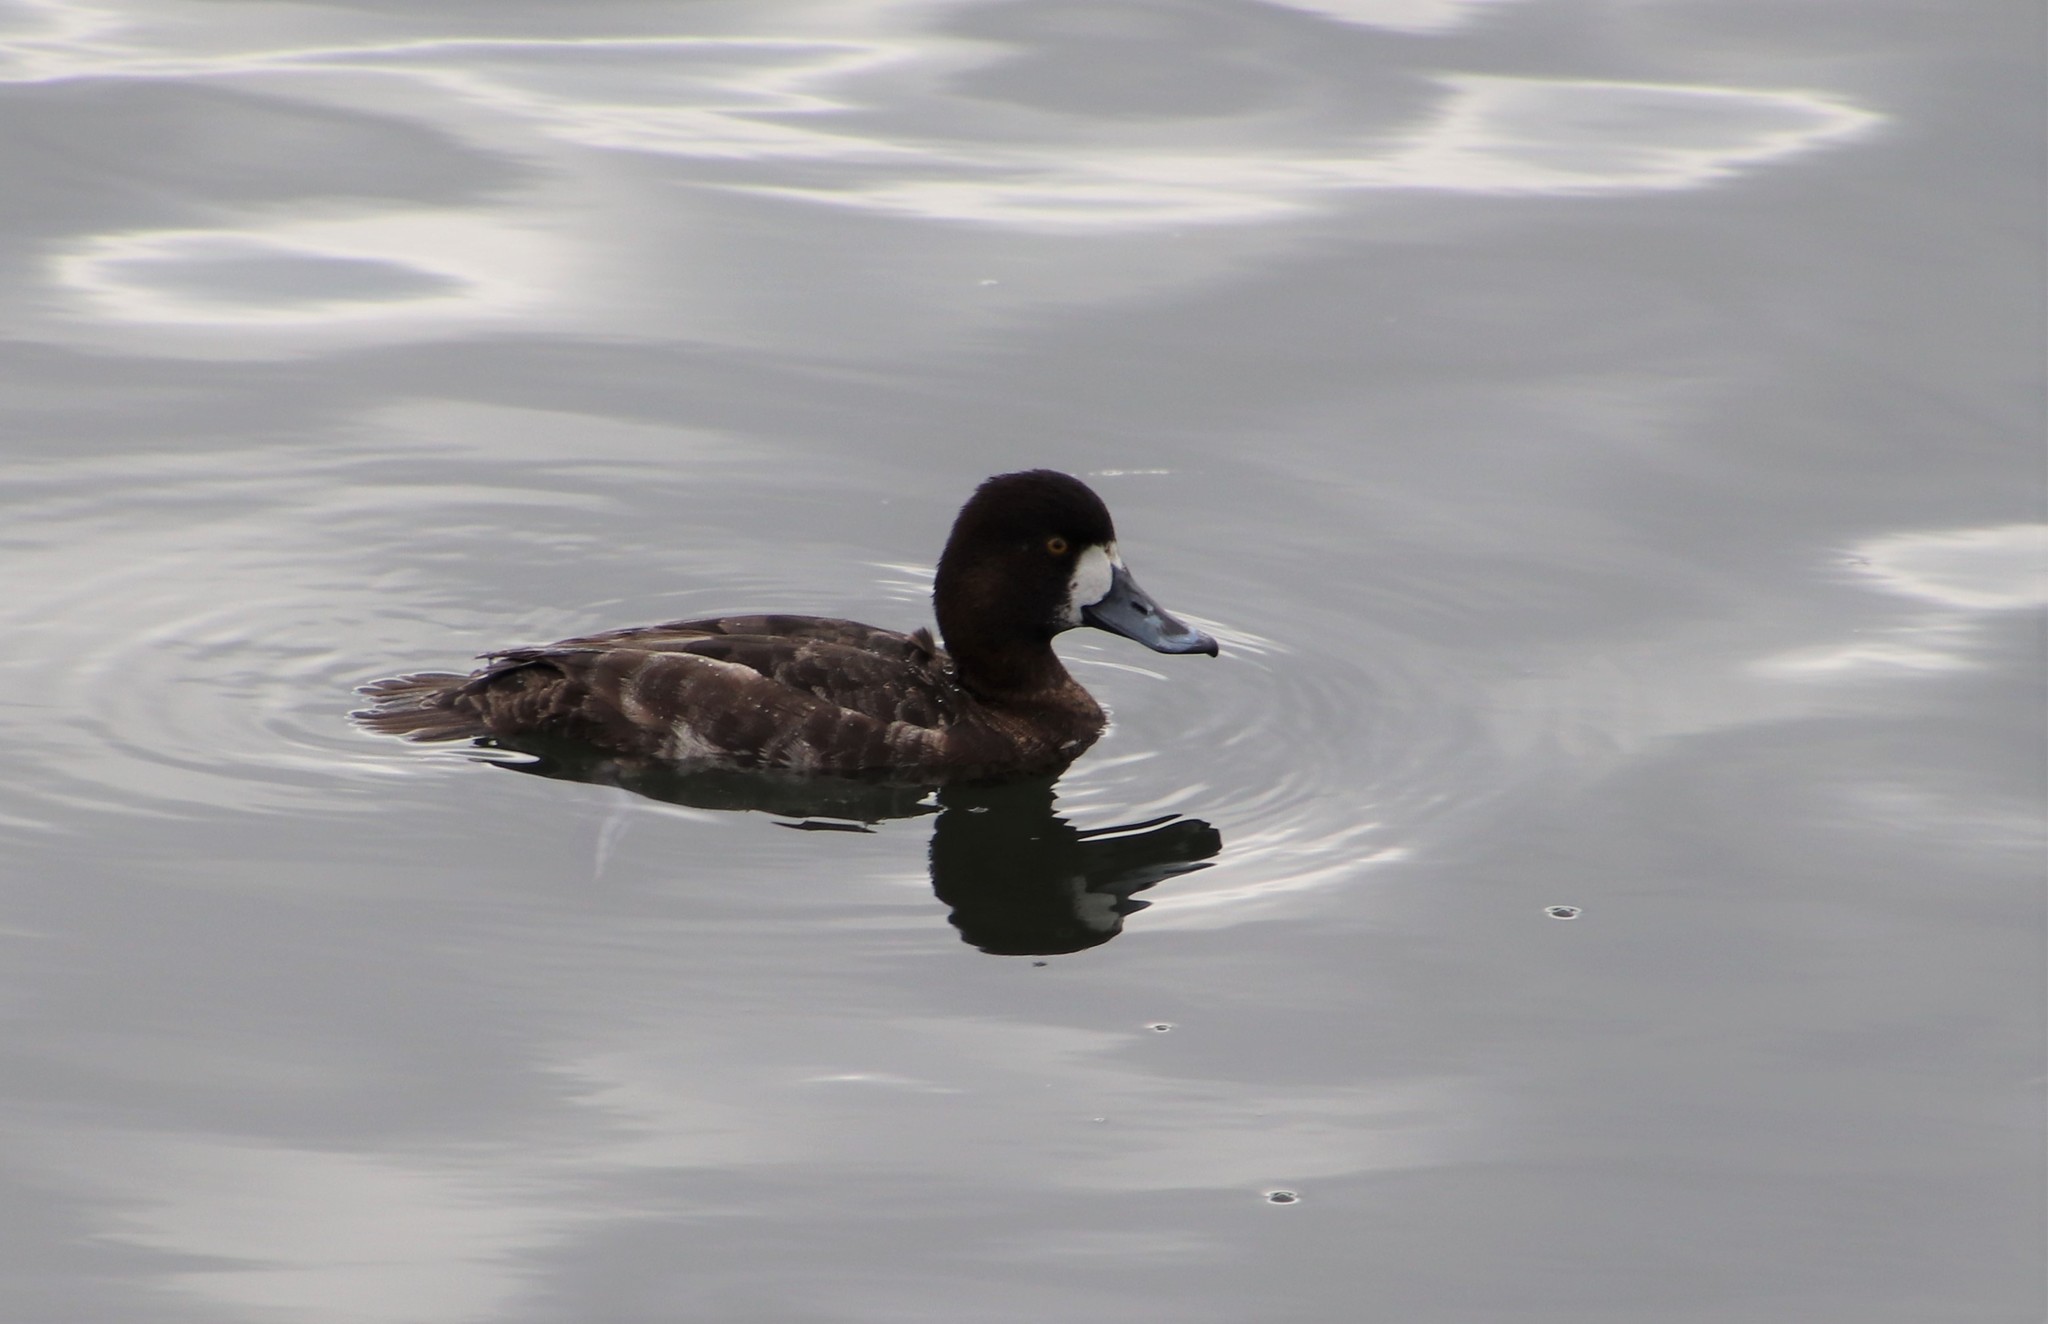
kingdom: Animalia
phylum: Chordata
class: Aves
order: Anseriformes
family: Anatidae
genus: Aythya
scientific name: Aythya affinis
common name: Lesser scaup
